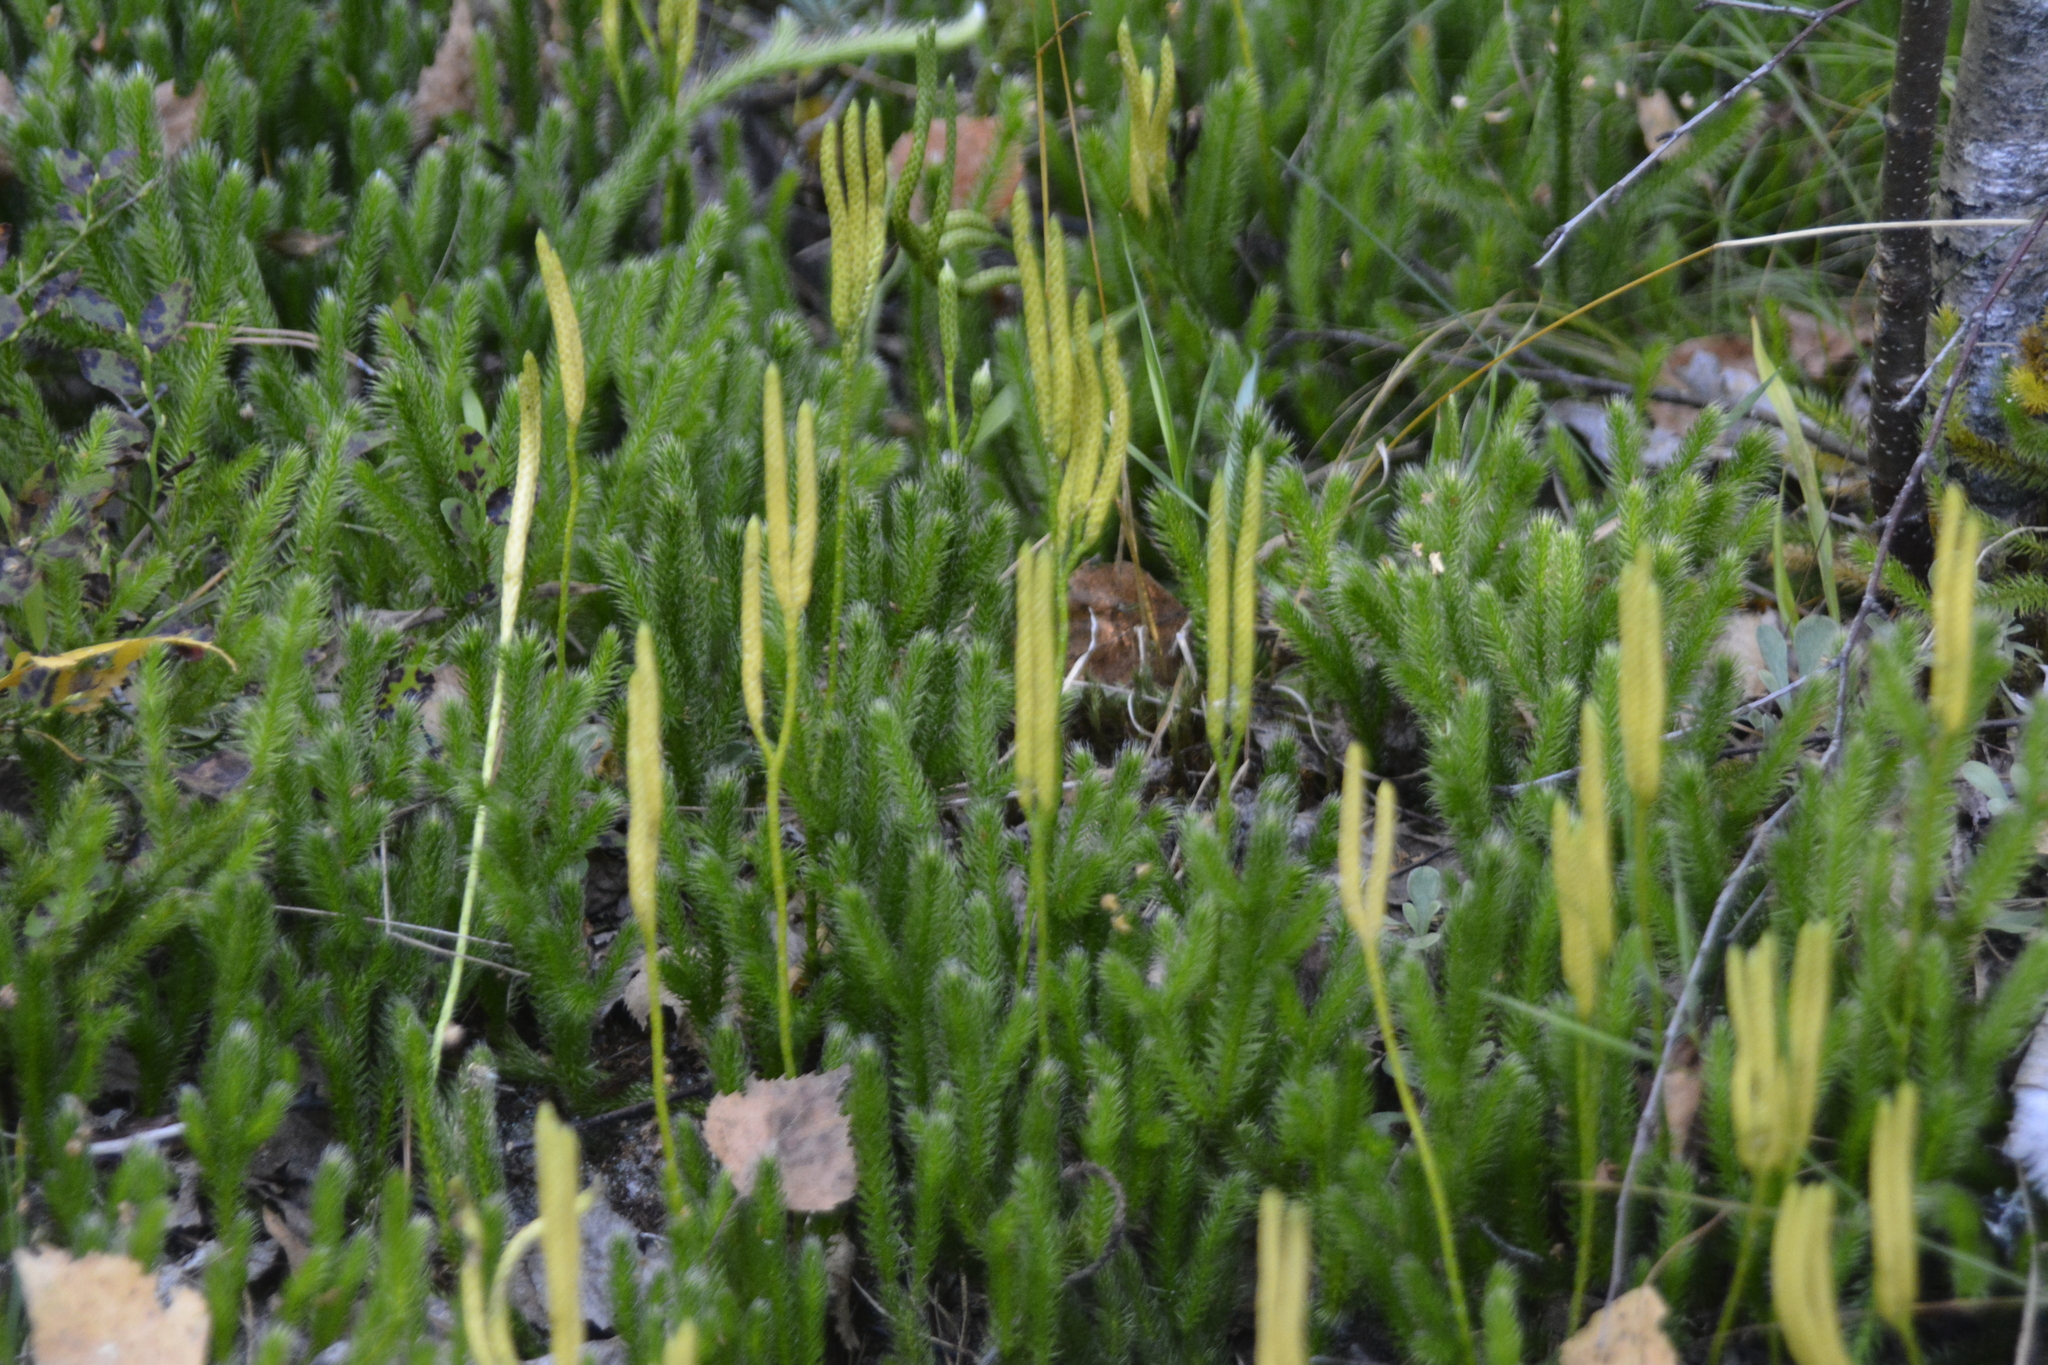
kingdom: Plantae
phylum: Tracheophyta
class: Lycopodiopsida
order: Lycopodiales
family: Lycopodiaceae
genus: Lycopodium
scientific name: Lycopodium clavatum
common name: Stag's-horn clubmoss
